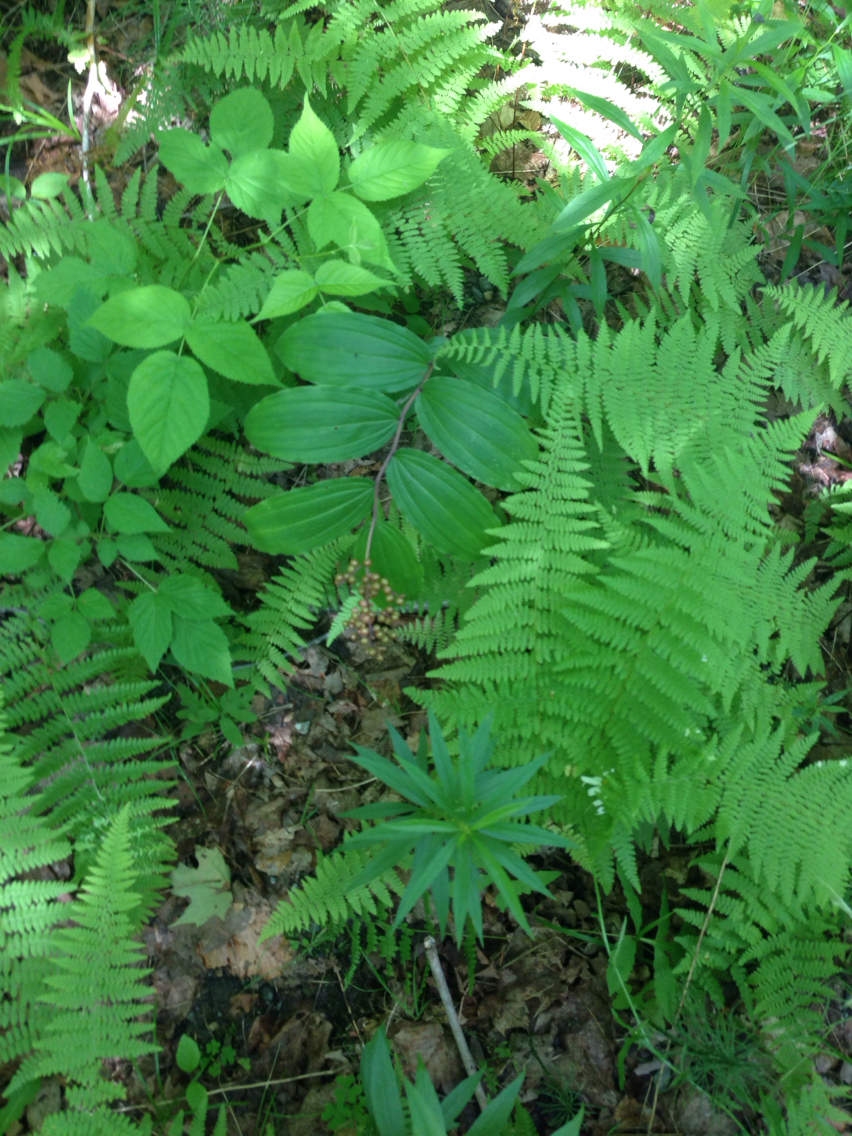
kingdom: Plantae
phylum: Tracheophyta
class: Liliopsida
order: Asparagales
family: Asparagaceae
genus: Maianthemum
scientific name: Maianthemum racemosum
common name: False spikenard
